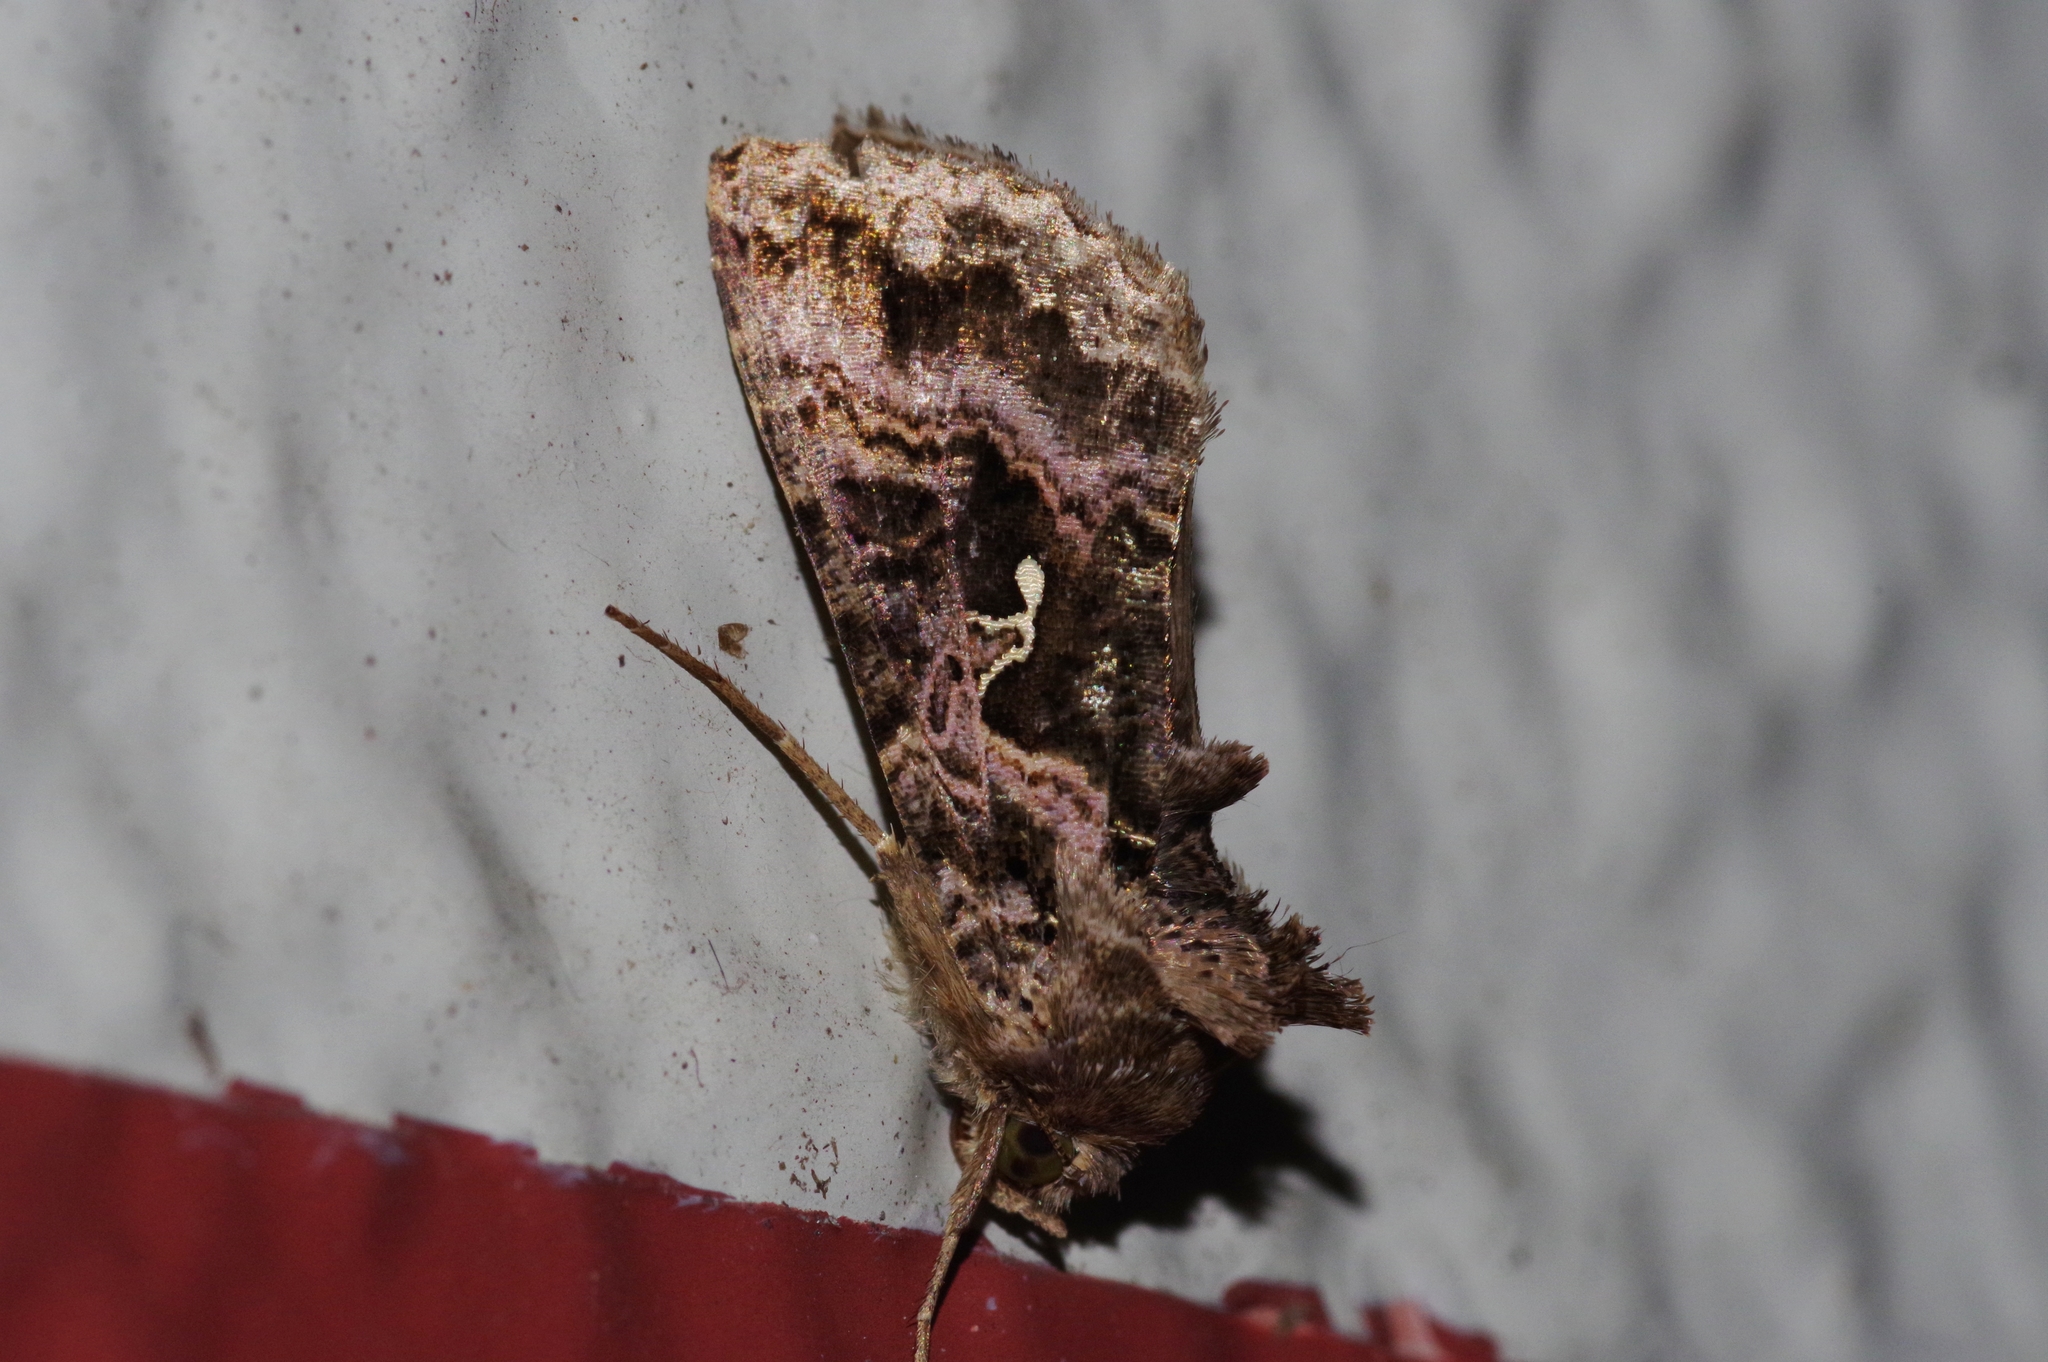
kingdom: Animalia
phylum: Arthropoda
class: Insecta
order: Lepidoptera
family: Noctuidae
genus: Ctenoplusia
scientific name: Ctenoplusia ichinosei
